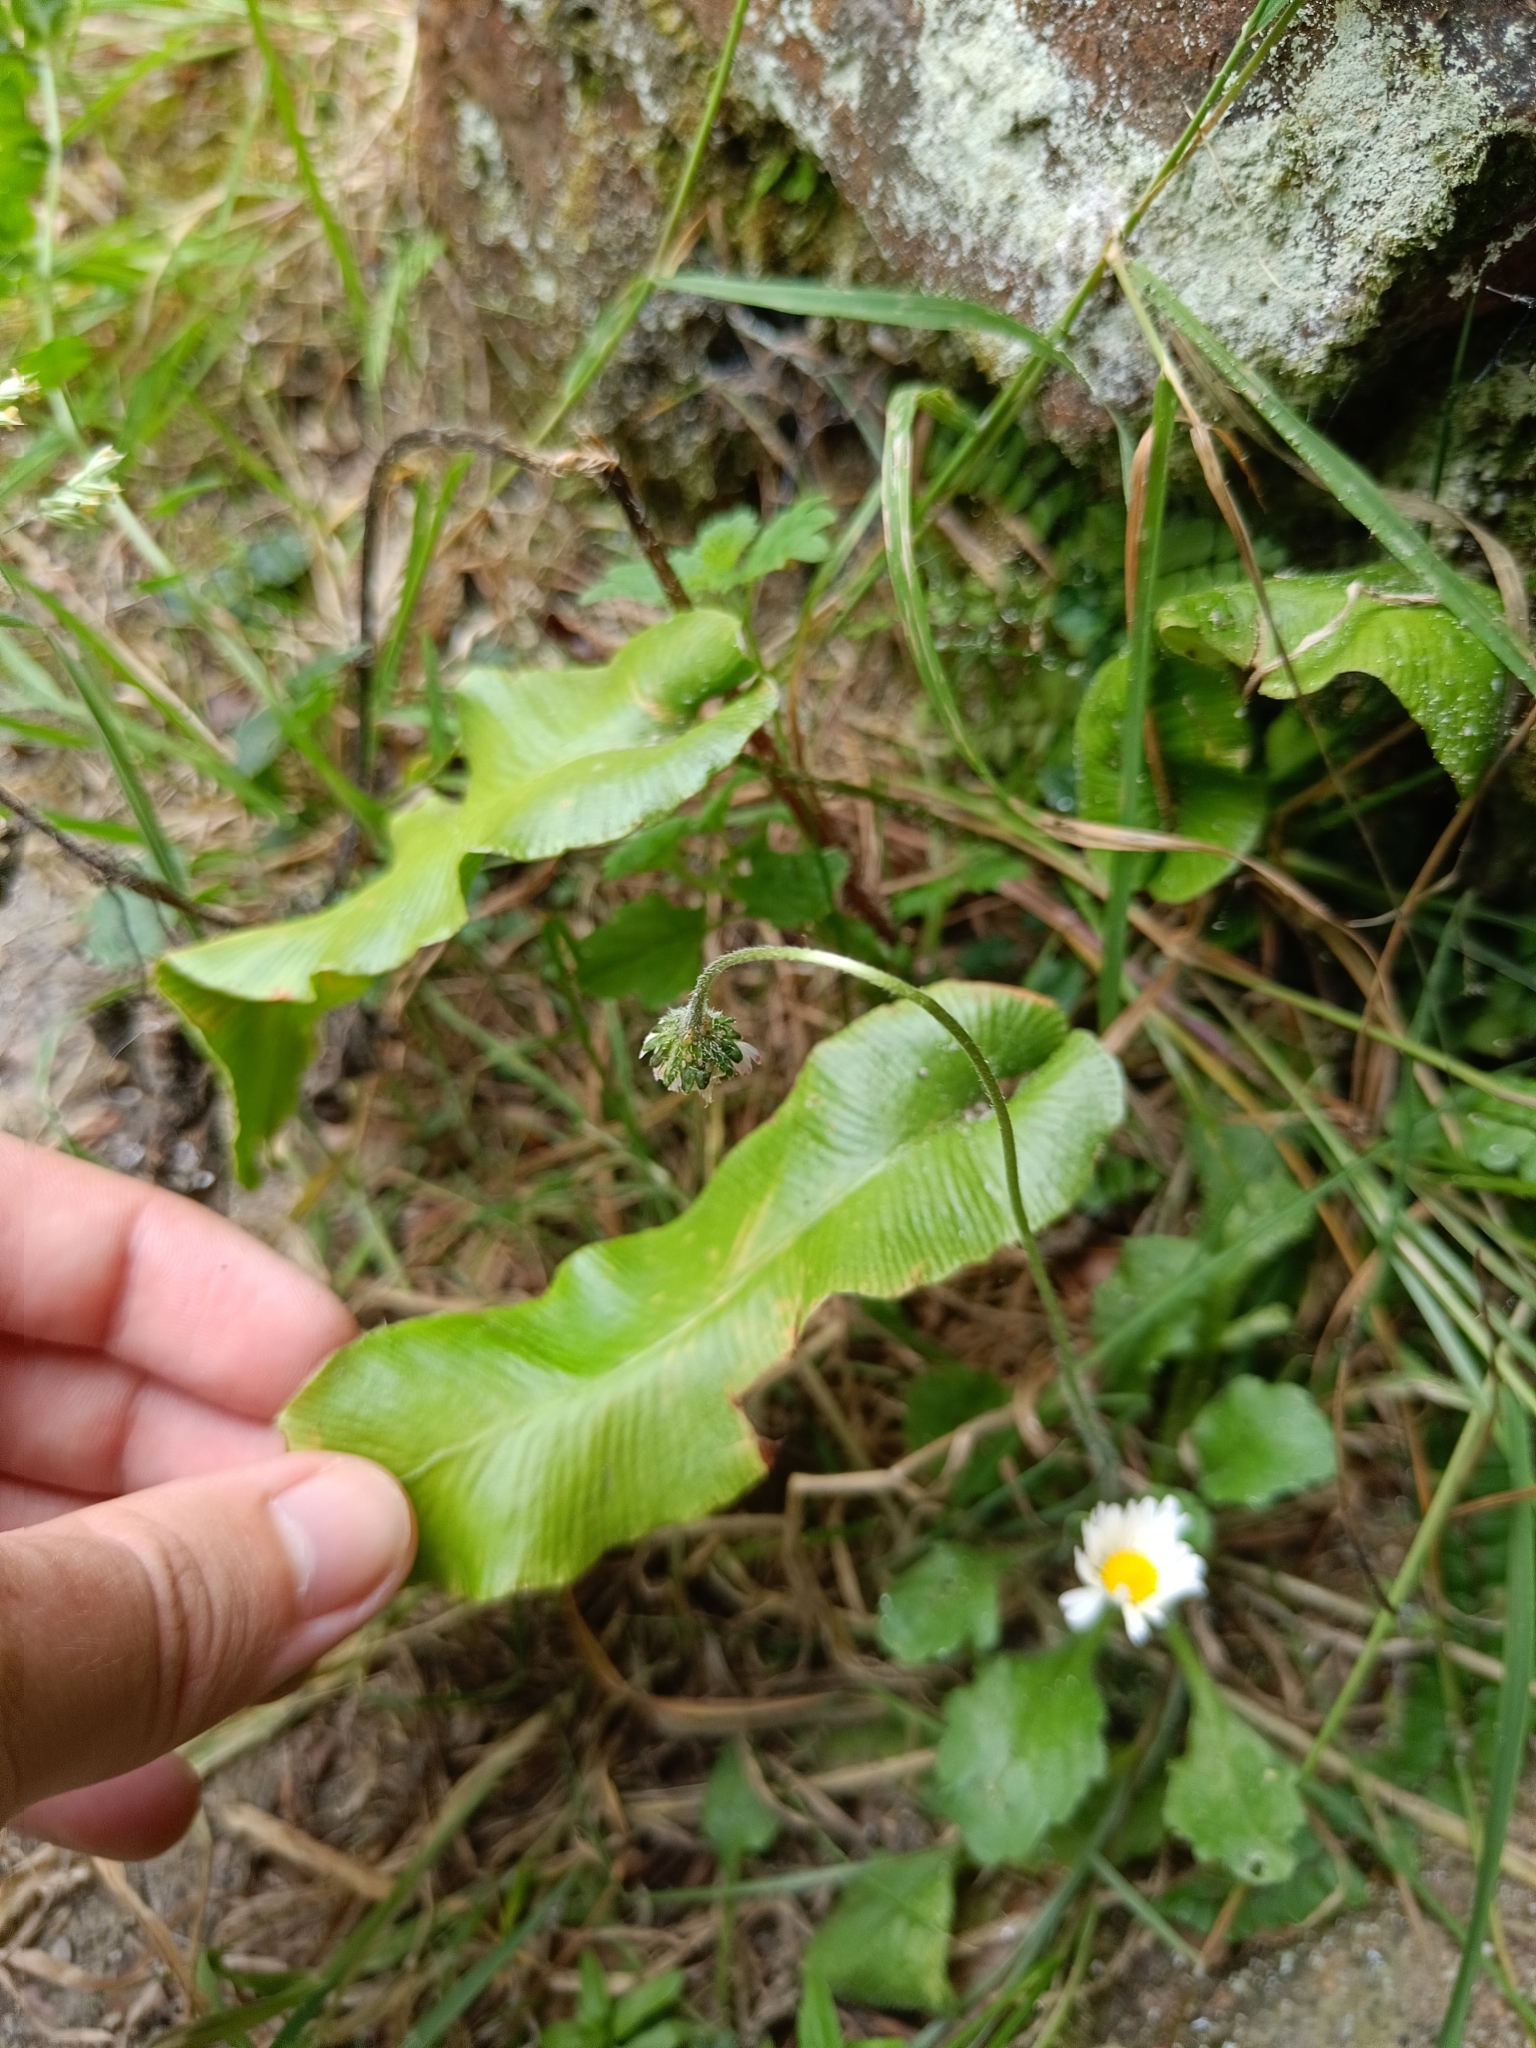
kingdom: Plantae
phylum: Tracheophyta
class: Polypodiopsida
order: Polypodiales
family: Aspleniaceae
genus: Asplenium
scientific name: Asplenium scolopendrium
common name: Hart's-tongue fern
